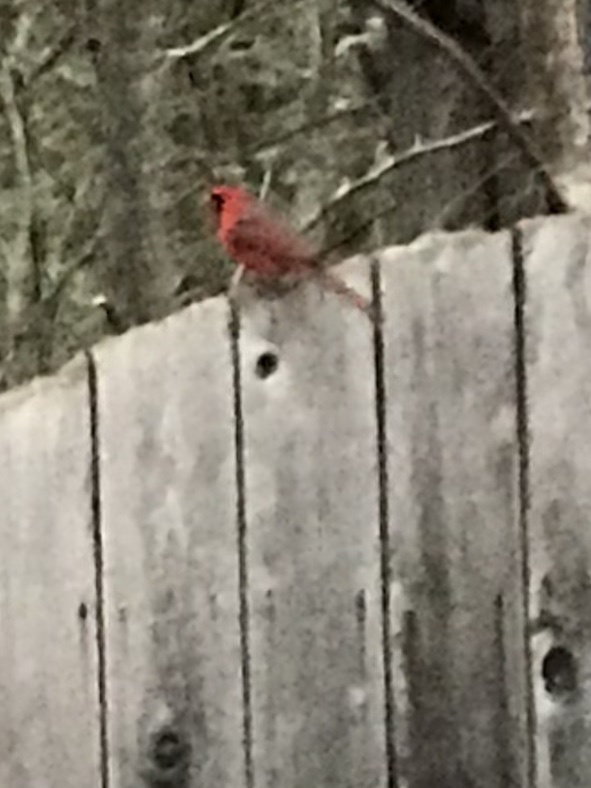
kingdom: Animalia
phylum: Chordata
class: Aves
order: Passeriformes
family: Cardinalidae
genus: Cardinalis
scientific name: Cardinalis cardinalis
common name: Northern cardinal
